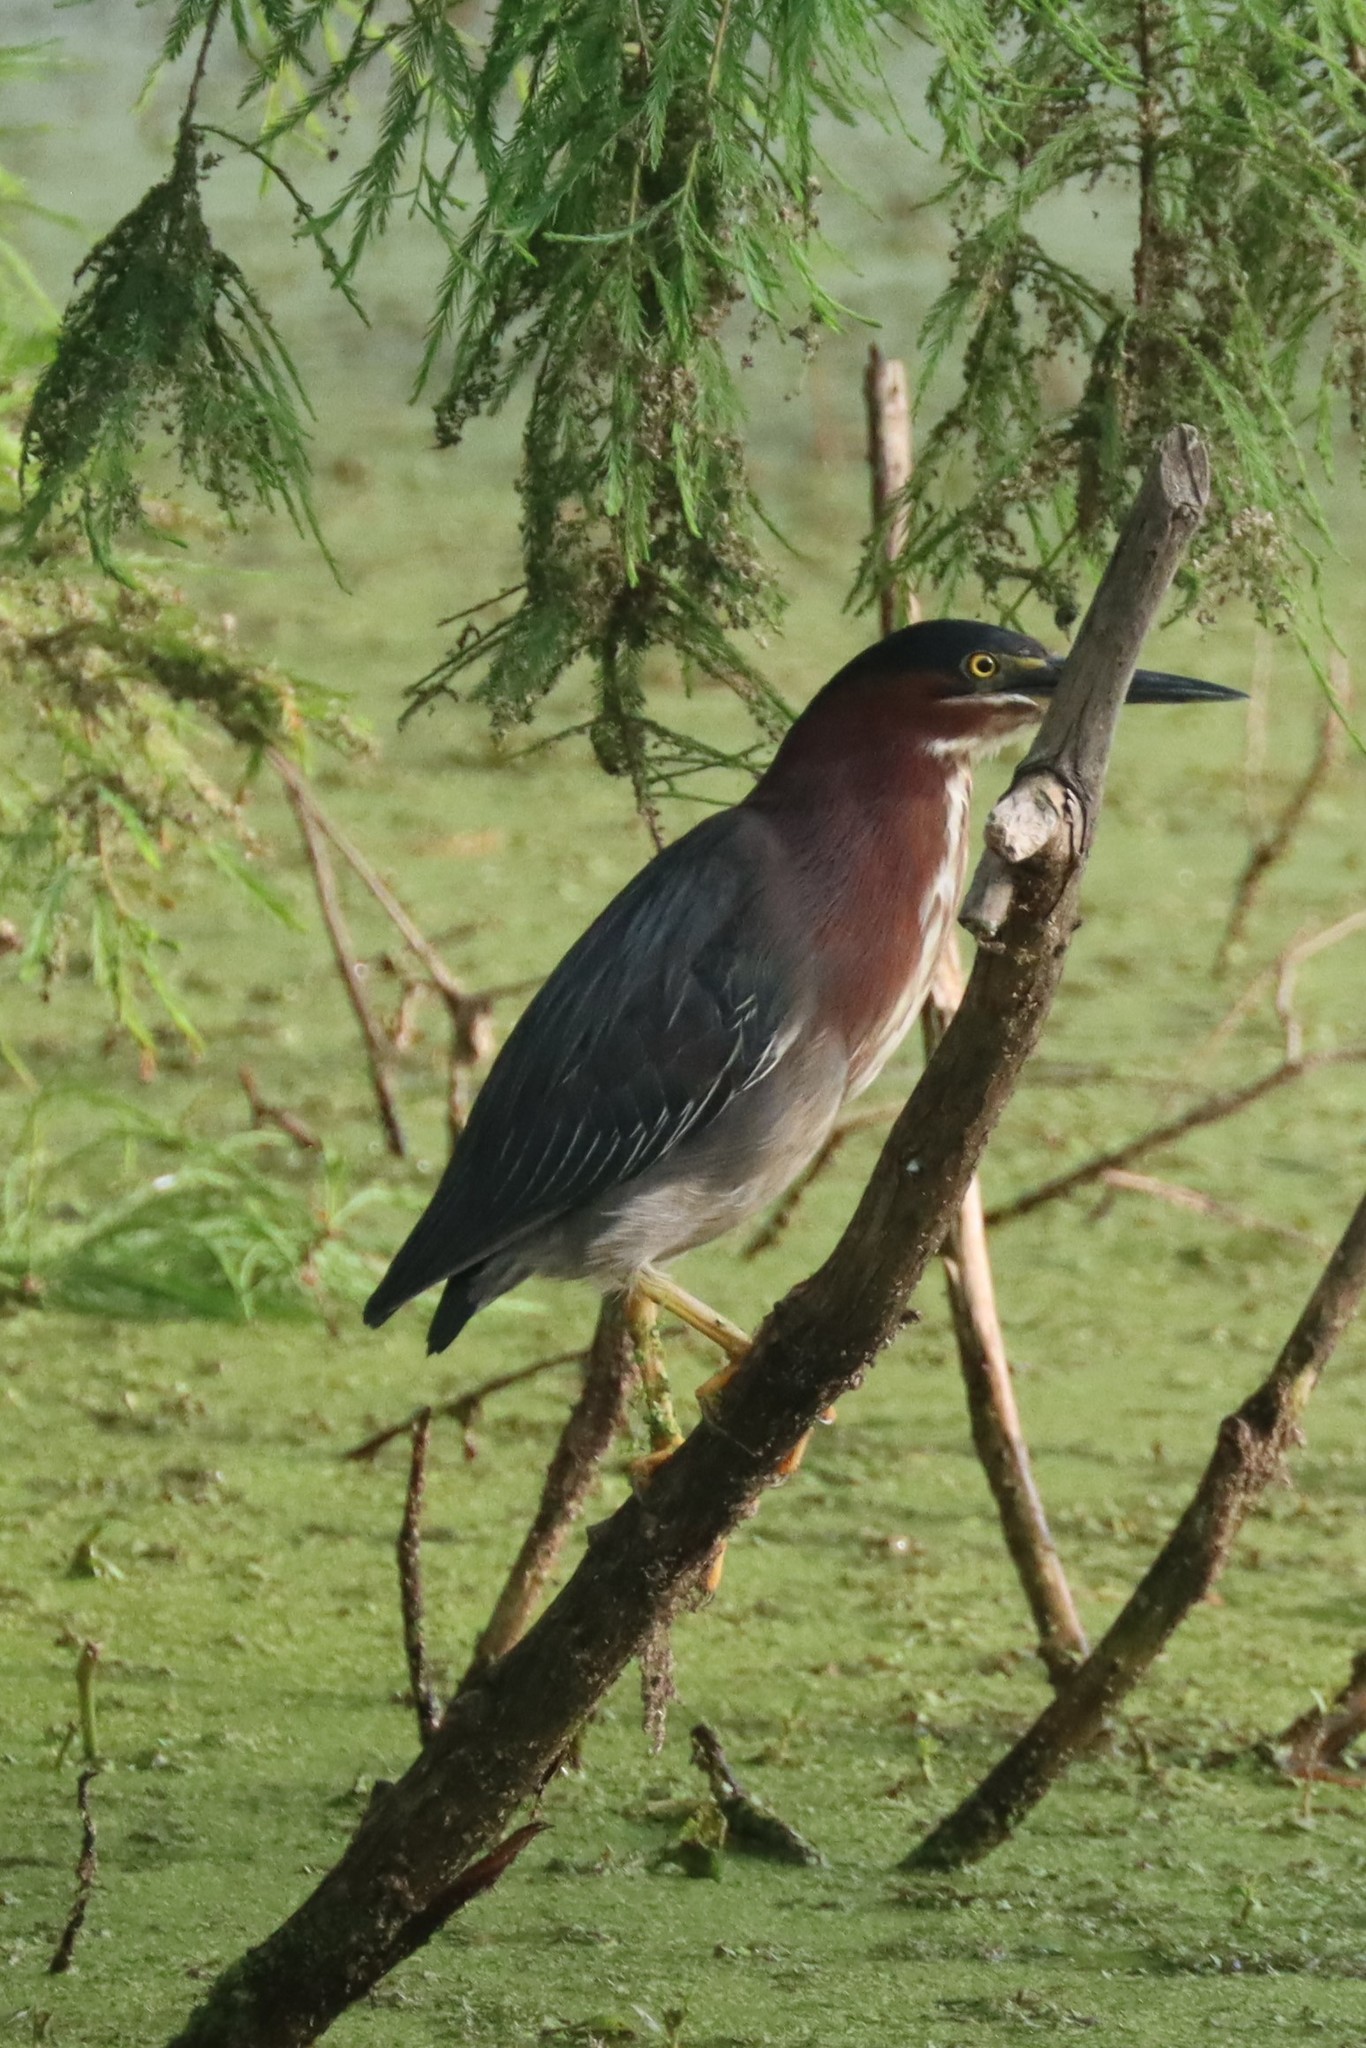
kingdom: Animalia
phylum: Chordata
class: Aves
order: Pelecaniformes
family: Ardeidae
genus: Butorides
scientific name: Butorides virescens
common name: Green heron
